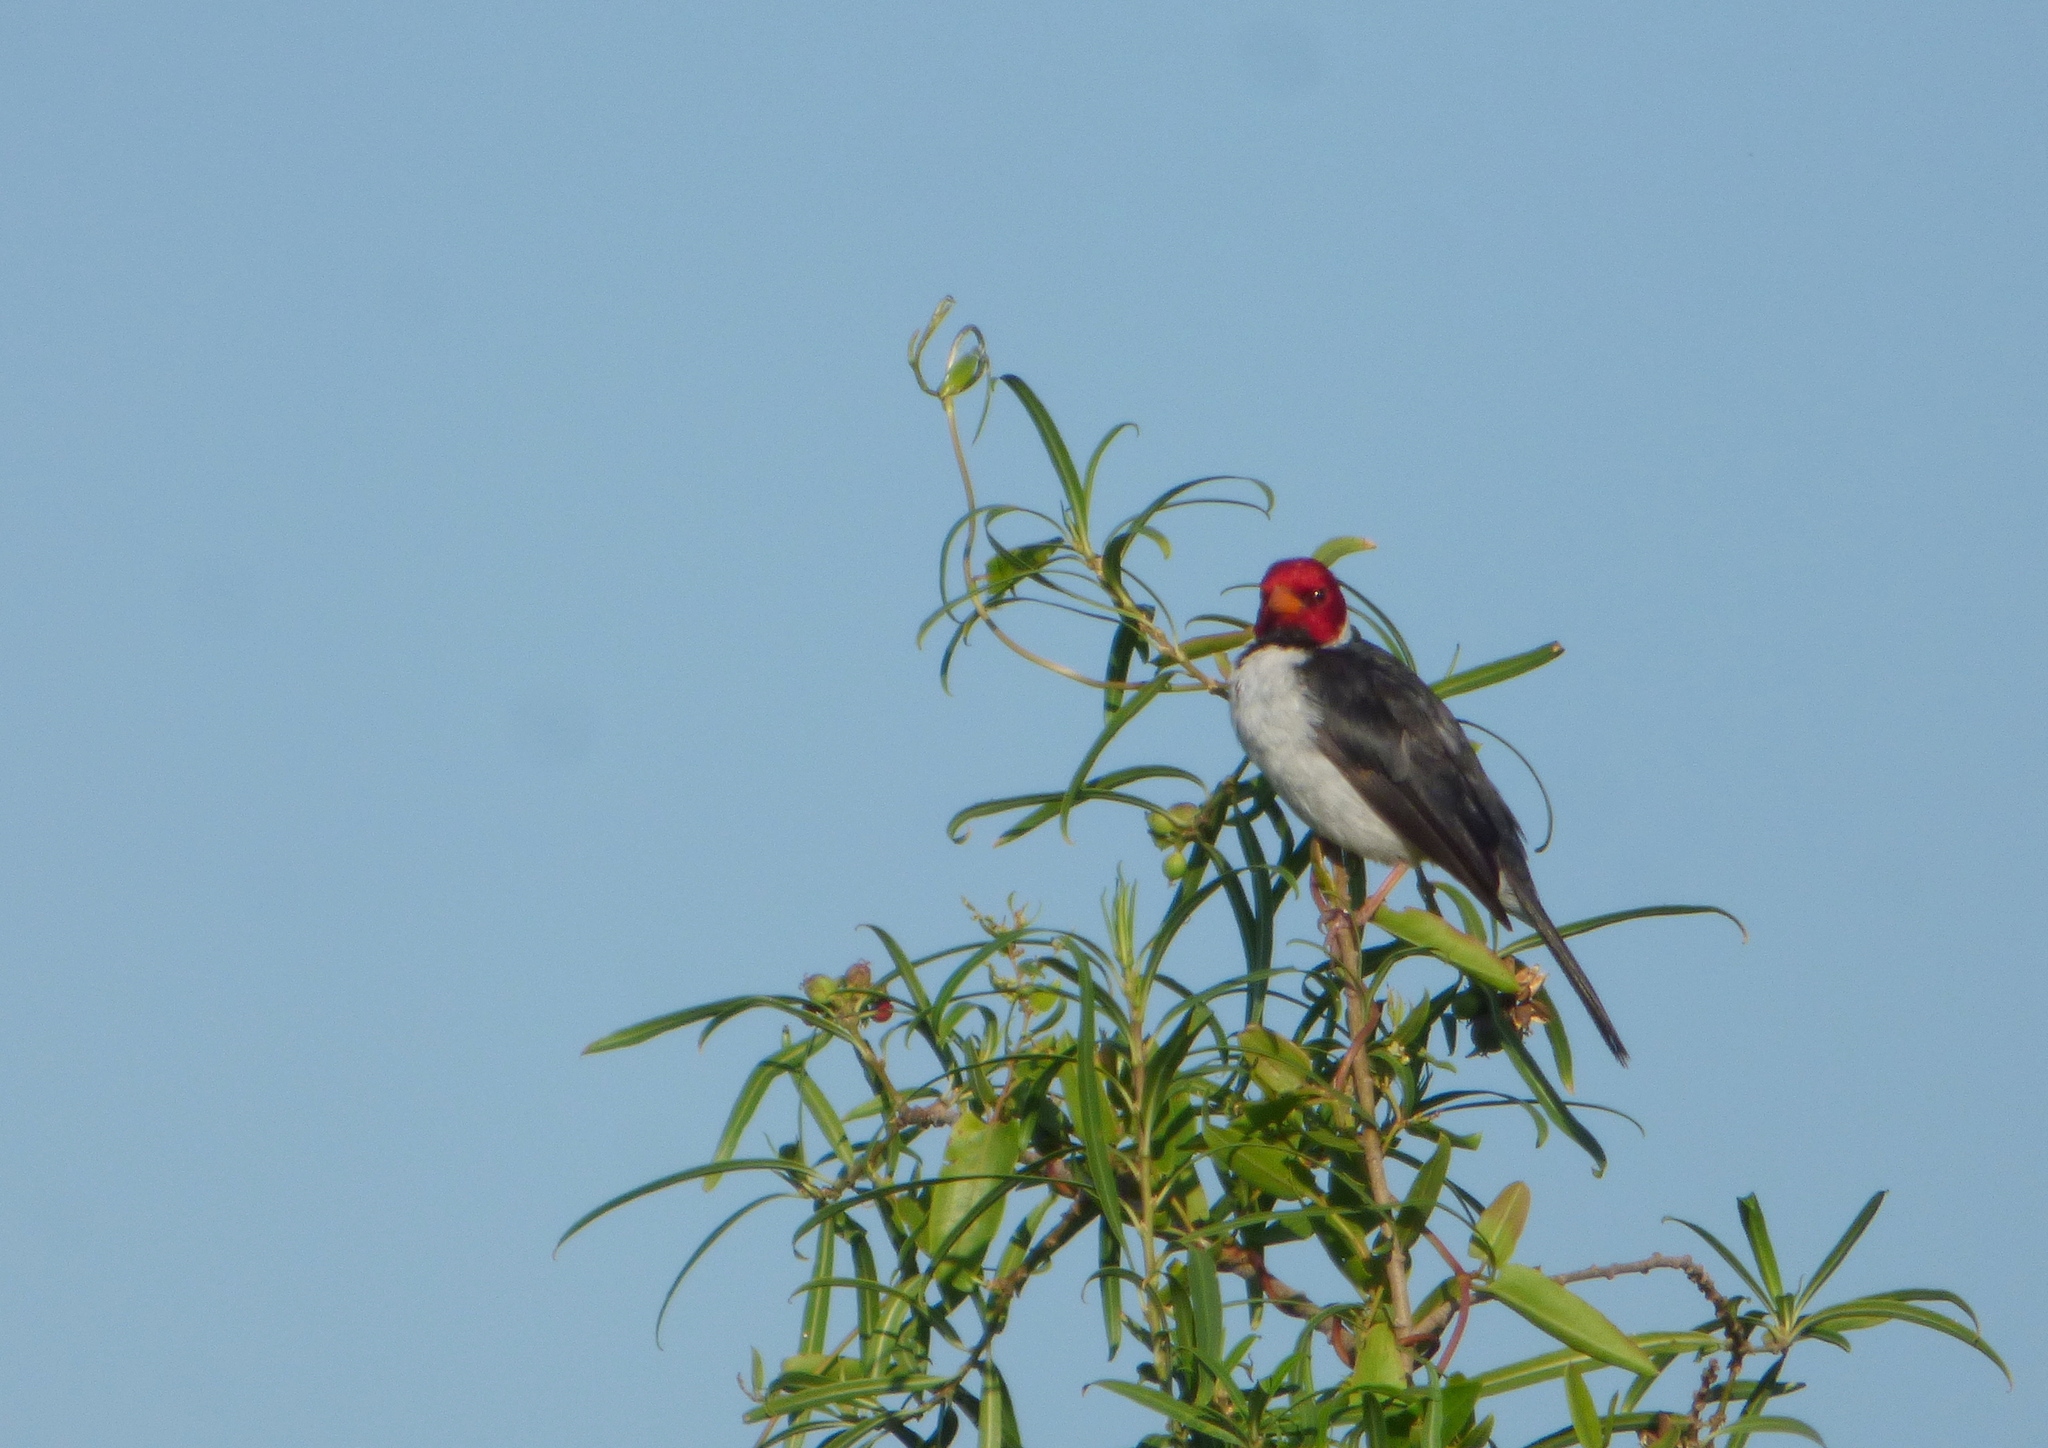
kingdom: Animalia
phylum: Chordata
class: Aves
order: Passeriformes
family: Thraupidae
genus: Paroaria
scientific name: Paroaria capitata
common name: Yellow-billed cardinal
